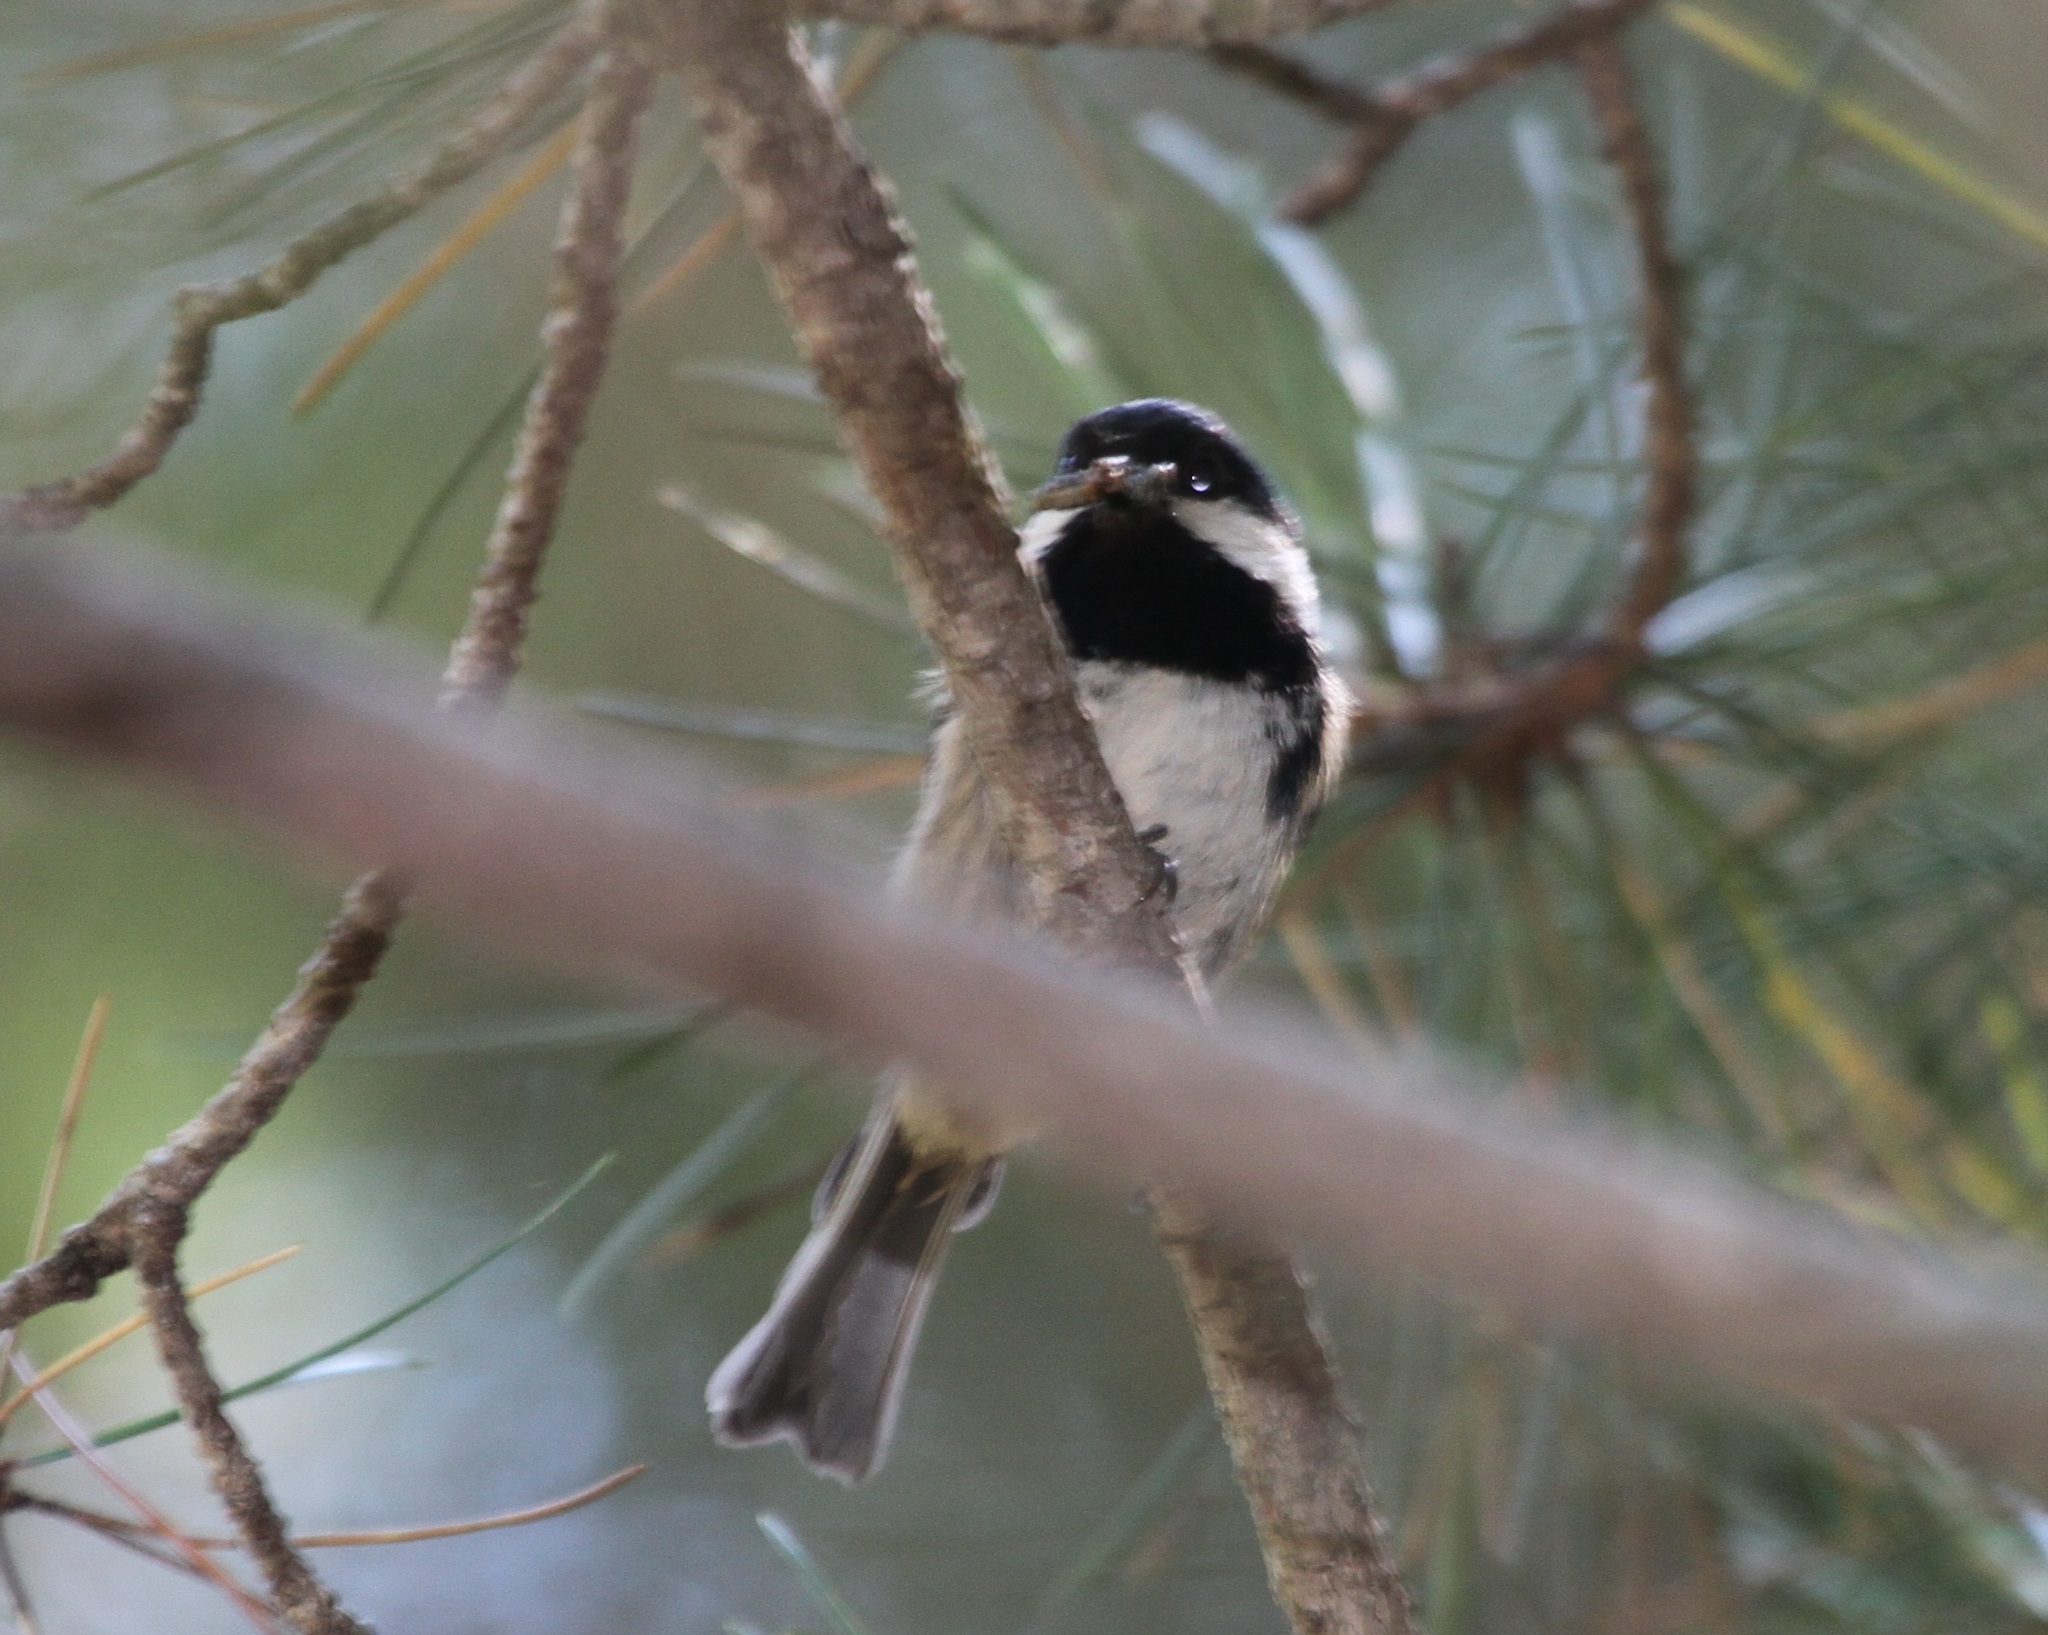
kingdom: Animalia
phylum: Chordata
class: Aves
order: Passeriformes
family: Paridae
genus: Periparus
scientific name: Periparus ater
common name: Coal tit
